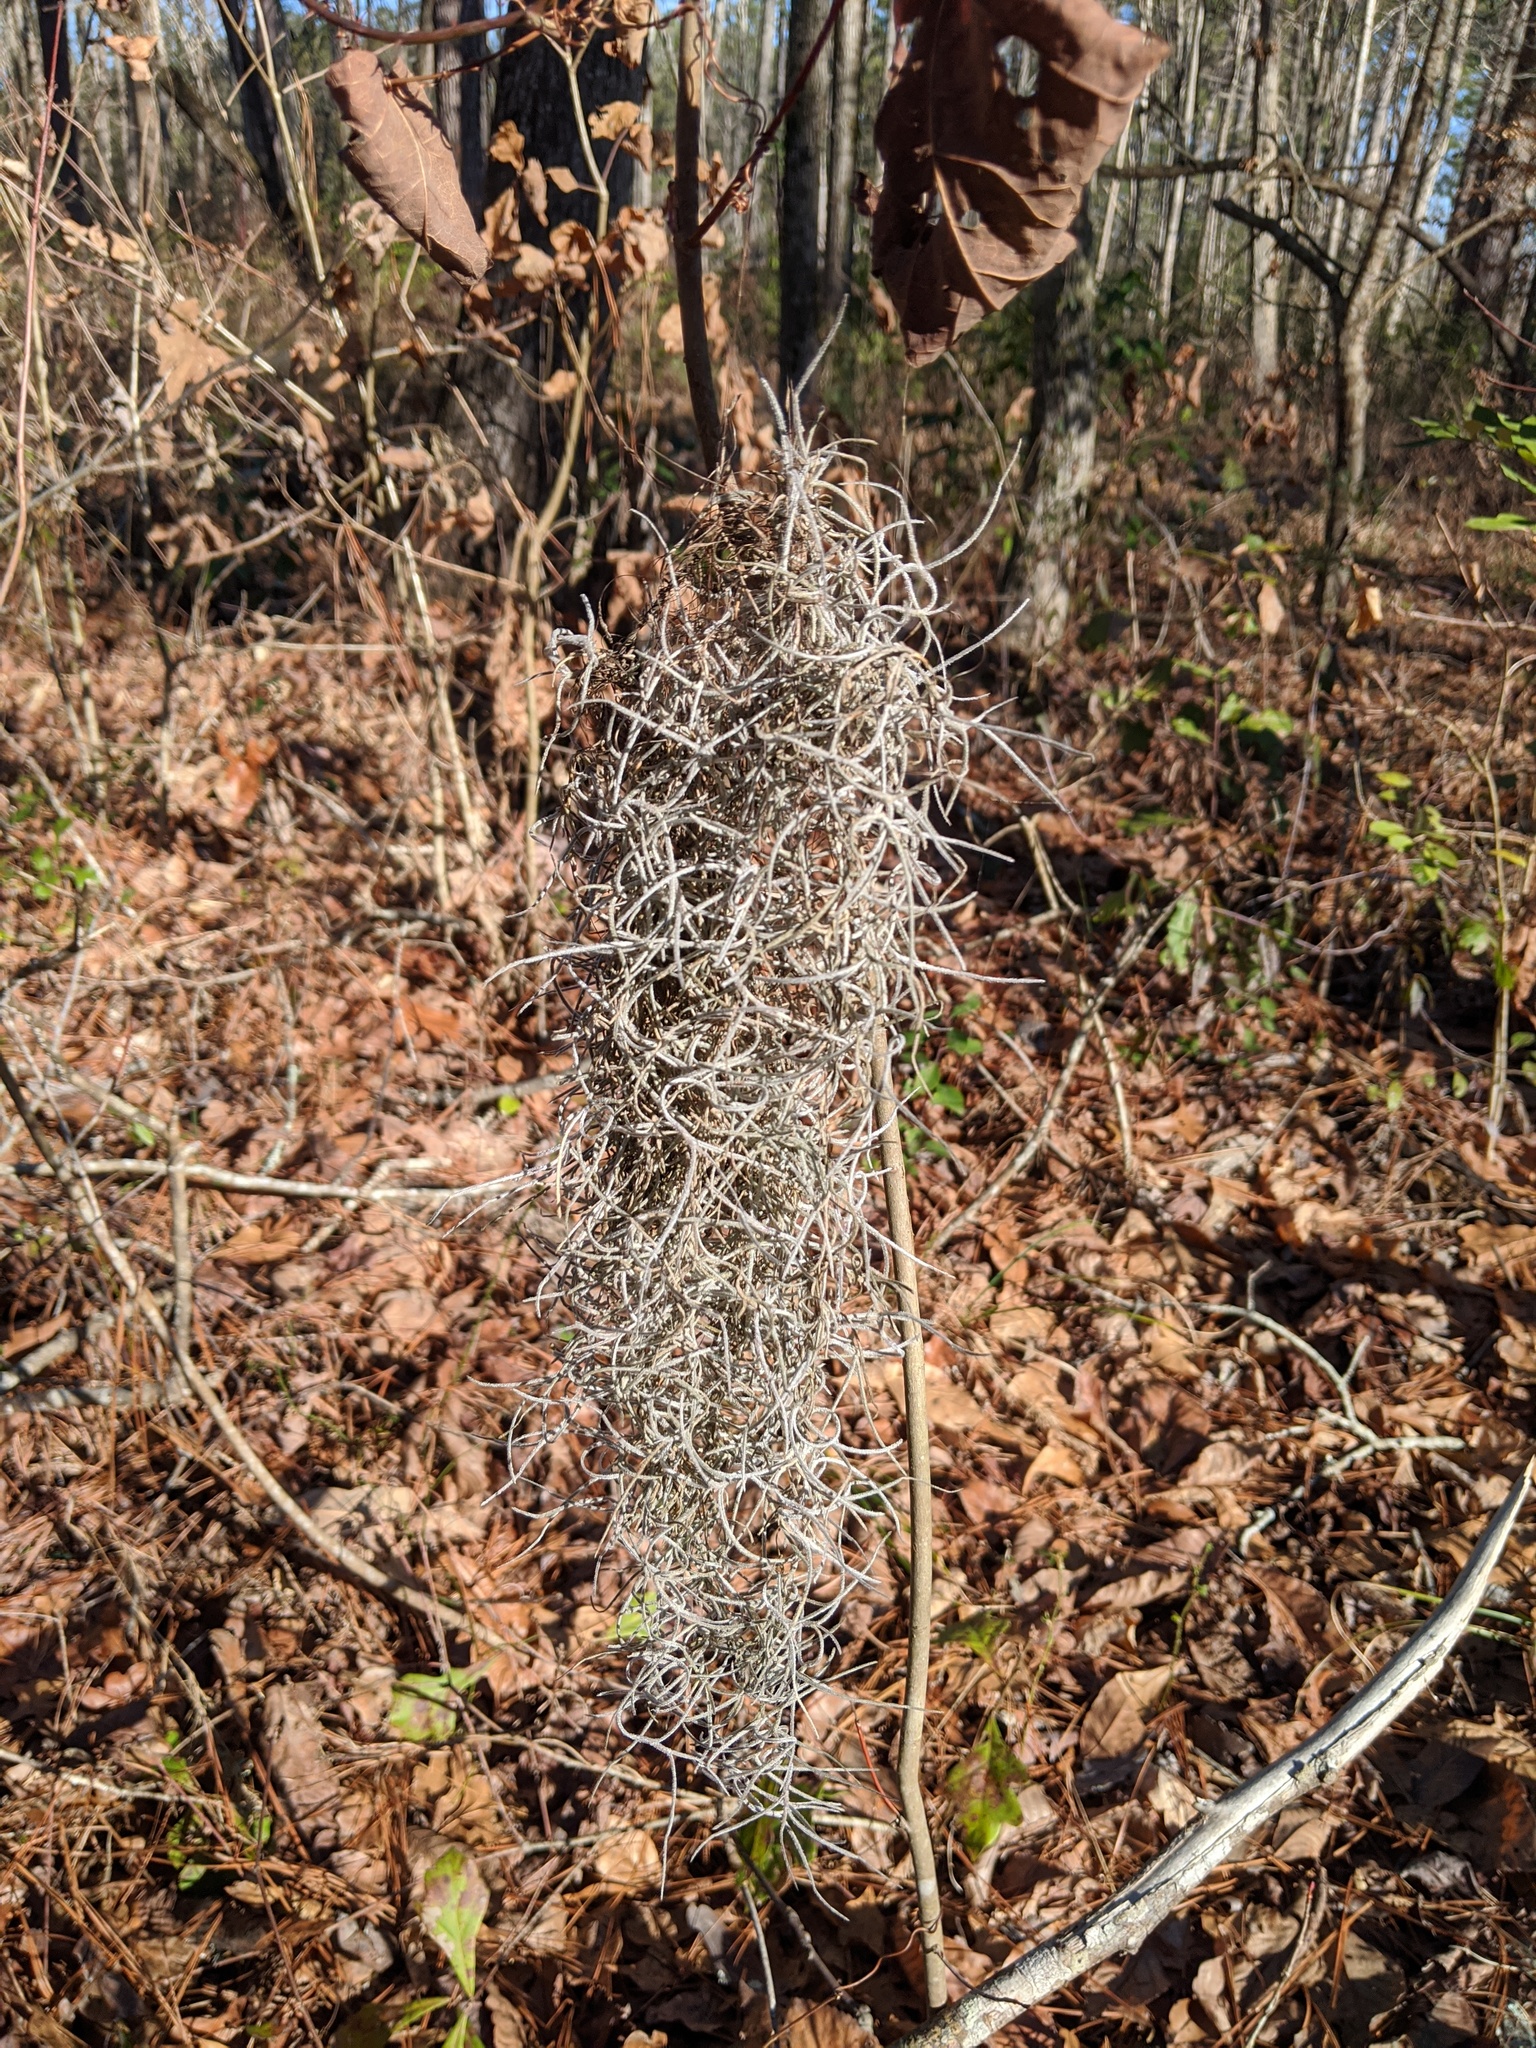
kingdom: Plantae
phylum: Tracheophyta
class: Liliopsida
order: Poales
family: Bromeliaceae
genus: Tillandsia
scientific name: Tillandsia usneoides
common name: Spanish moss
